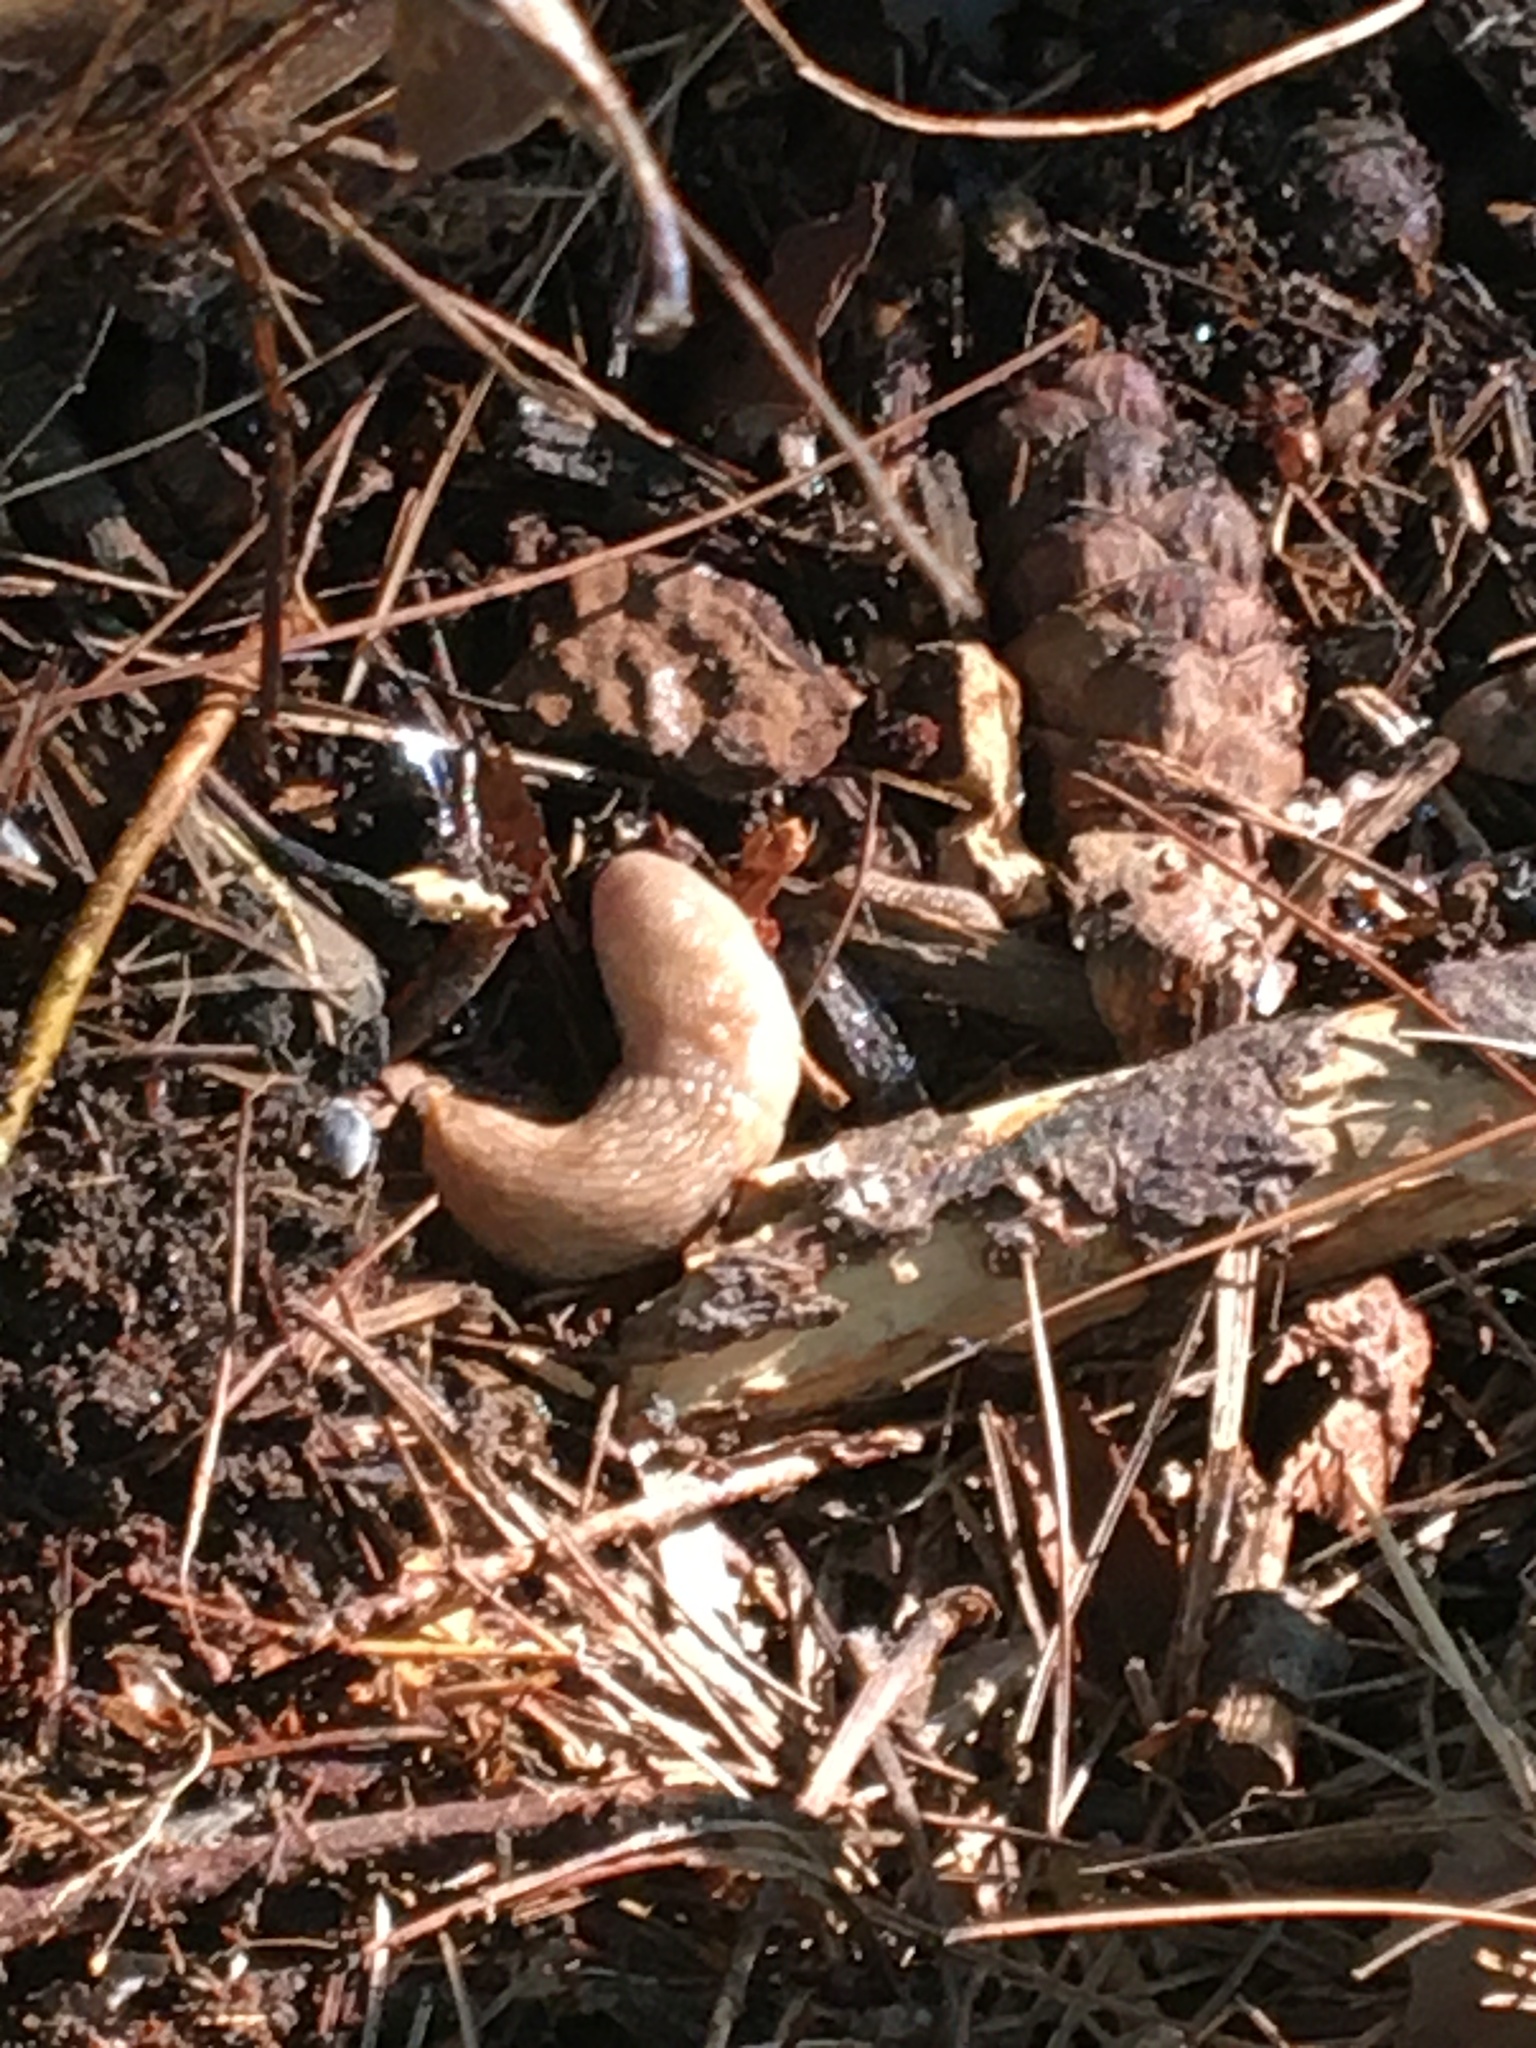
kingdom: Animalia
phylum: Mollusca
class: Gastropoda
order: Stylommatophora
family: Agriolimacidae
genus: Deroceras
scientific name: Deroceras reticulatum
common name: Gray field slug
